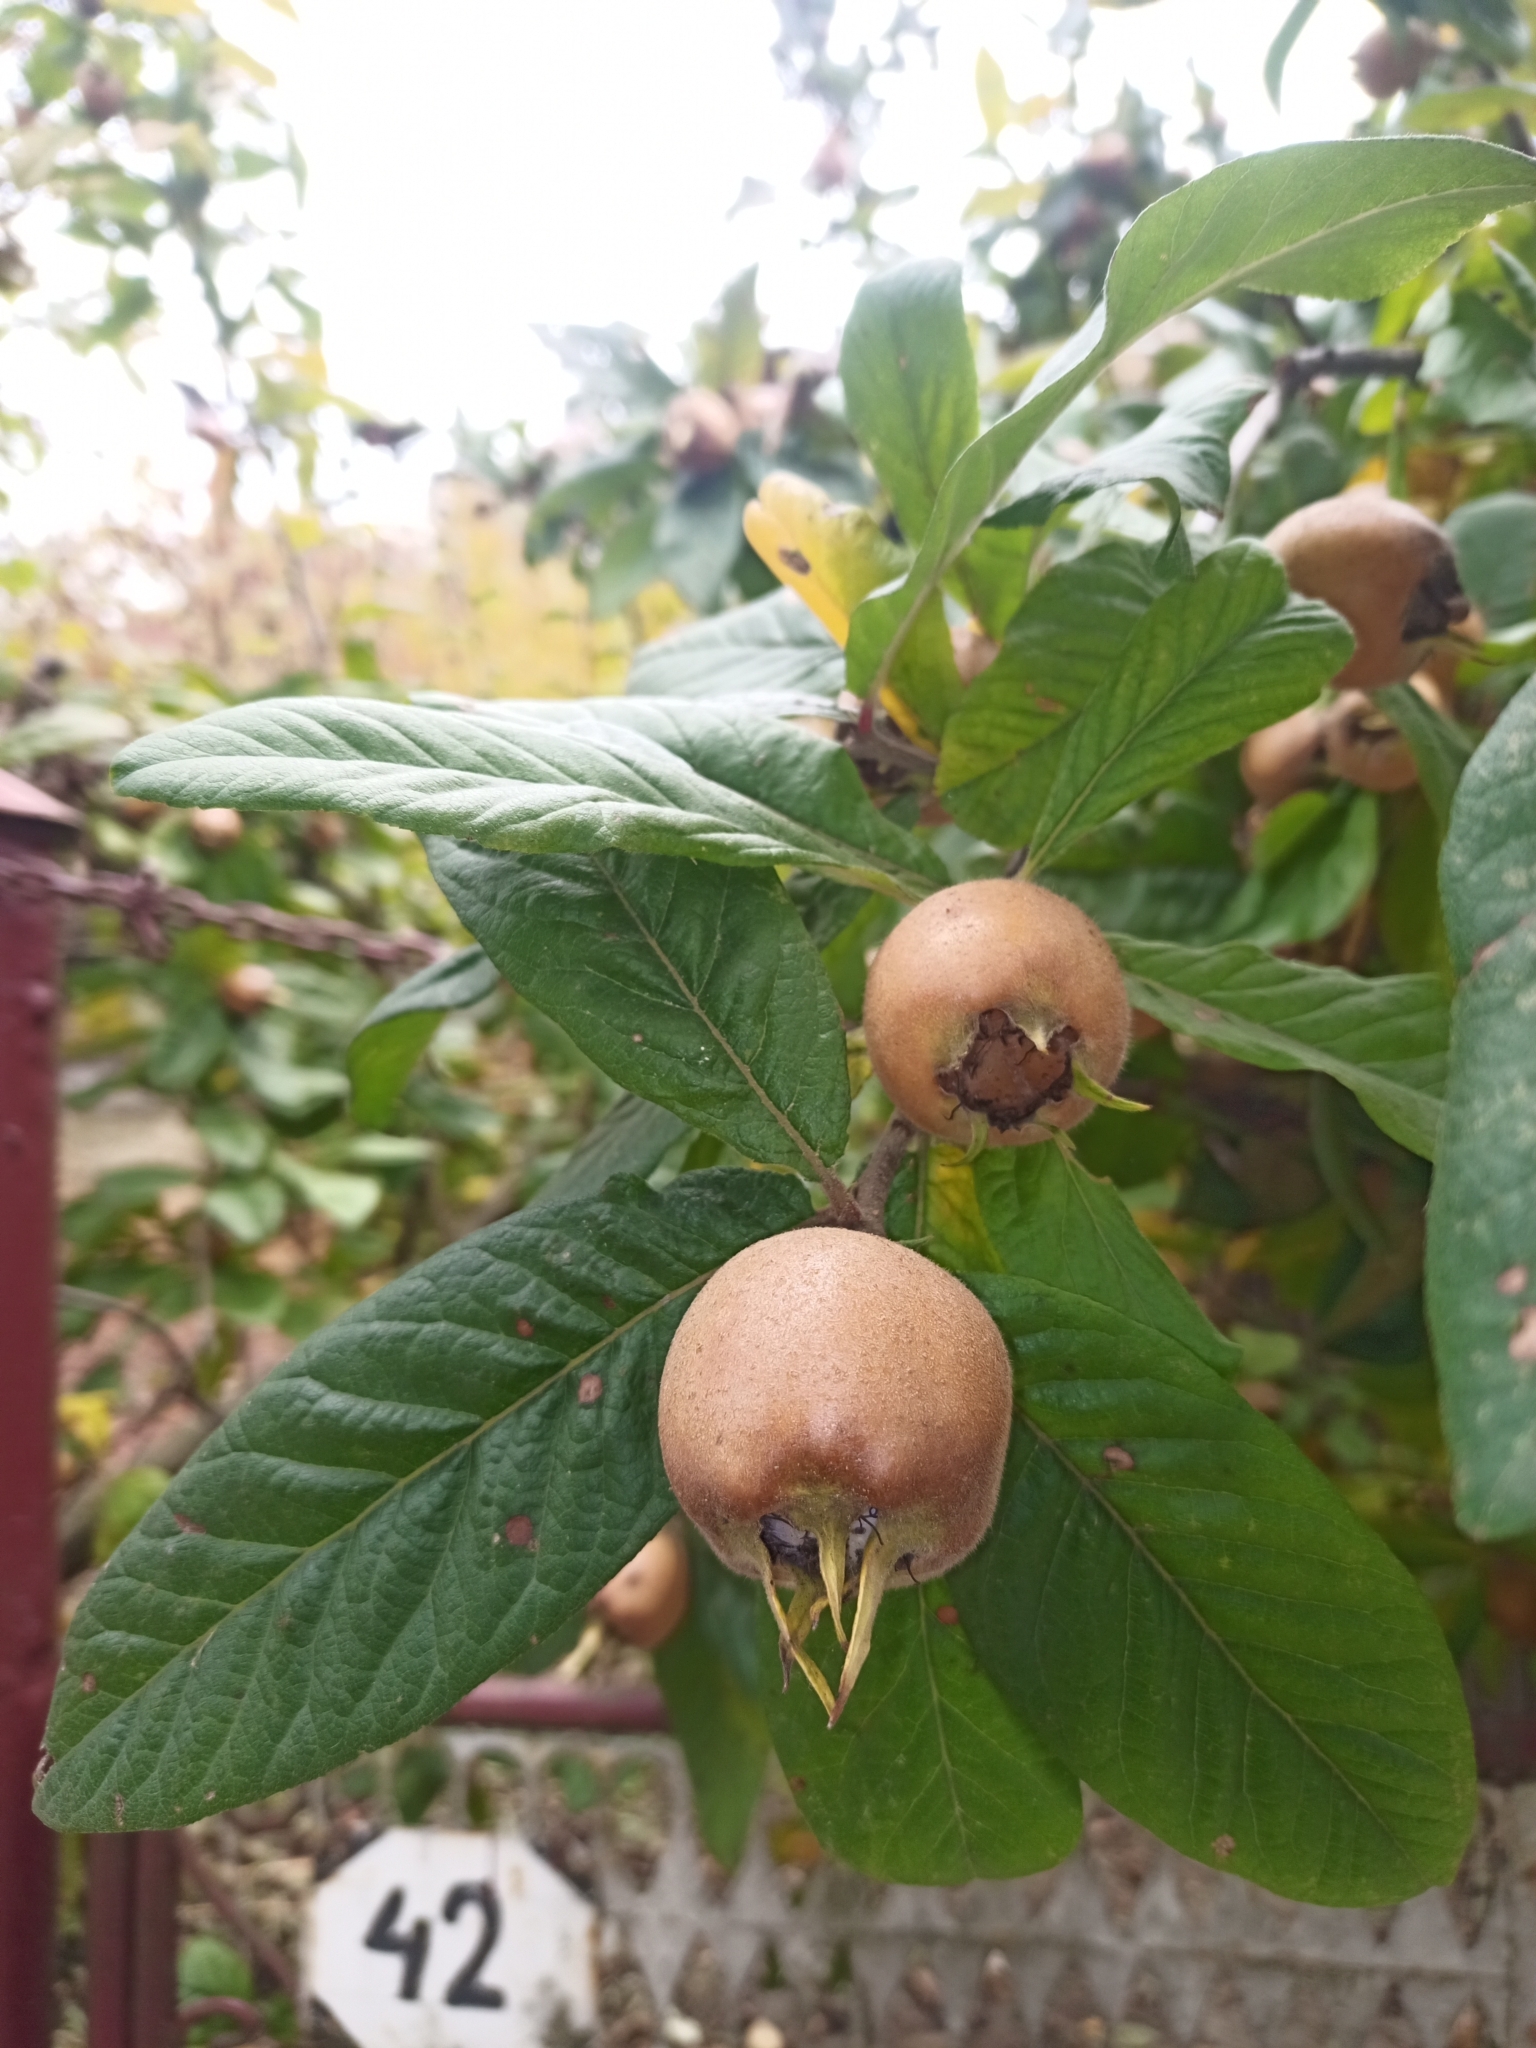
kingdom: Plantae
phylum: Tracheophyta
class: Magnoliopsida
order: Rosales
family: Rosaceae
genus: Mespilus
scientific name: Mespilus germanica
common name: Medlar
